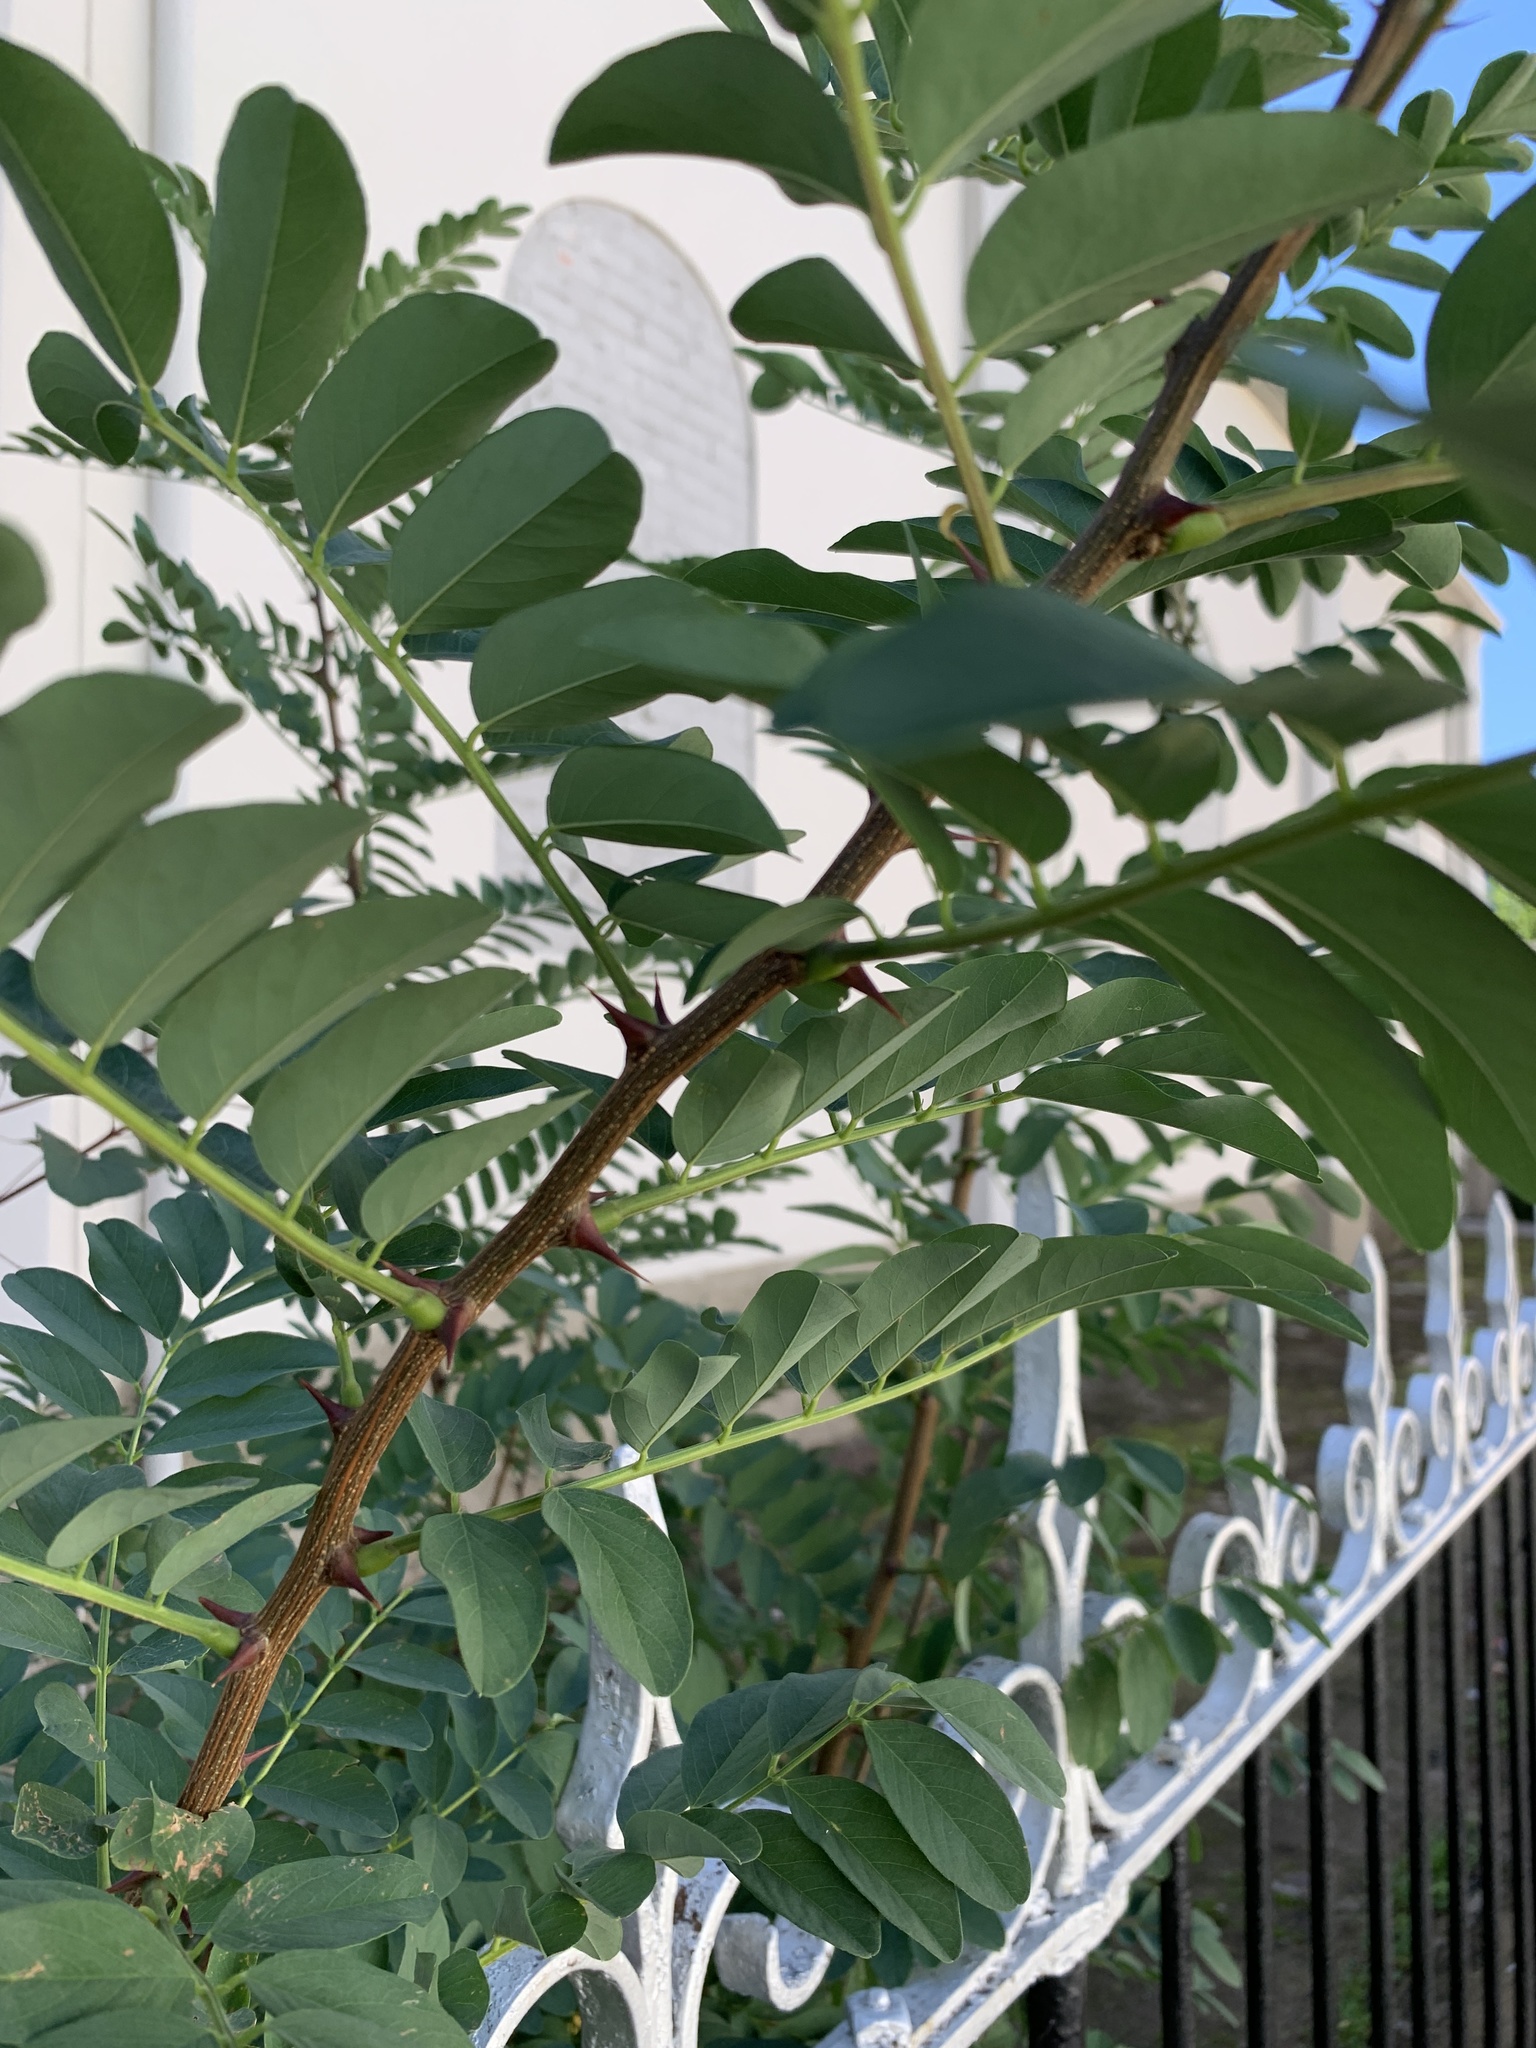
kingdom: Plantae
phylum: Tracheophyta
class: Magnoliopsida
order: Fabales
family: Fabaceae
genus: Robinia
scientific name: Robinia pseudoacacia
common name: Black locust
